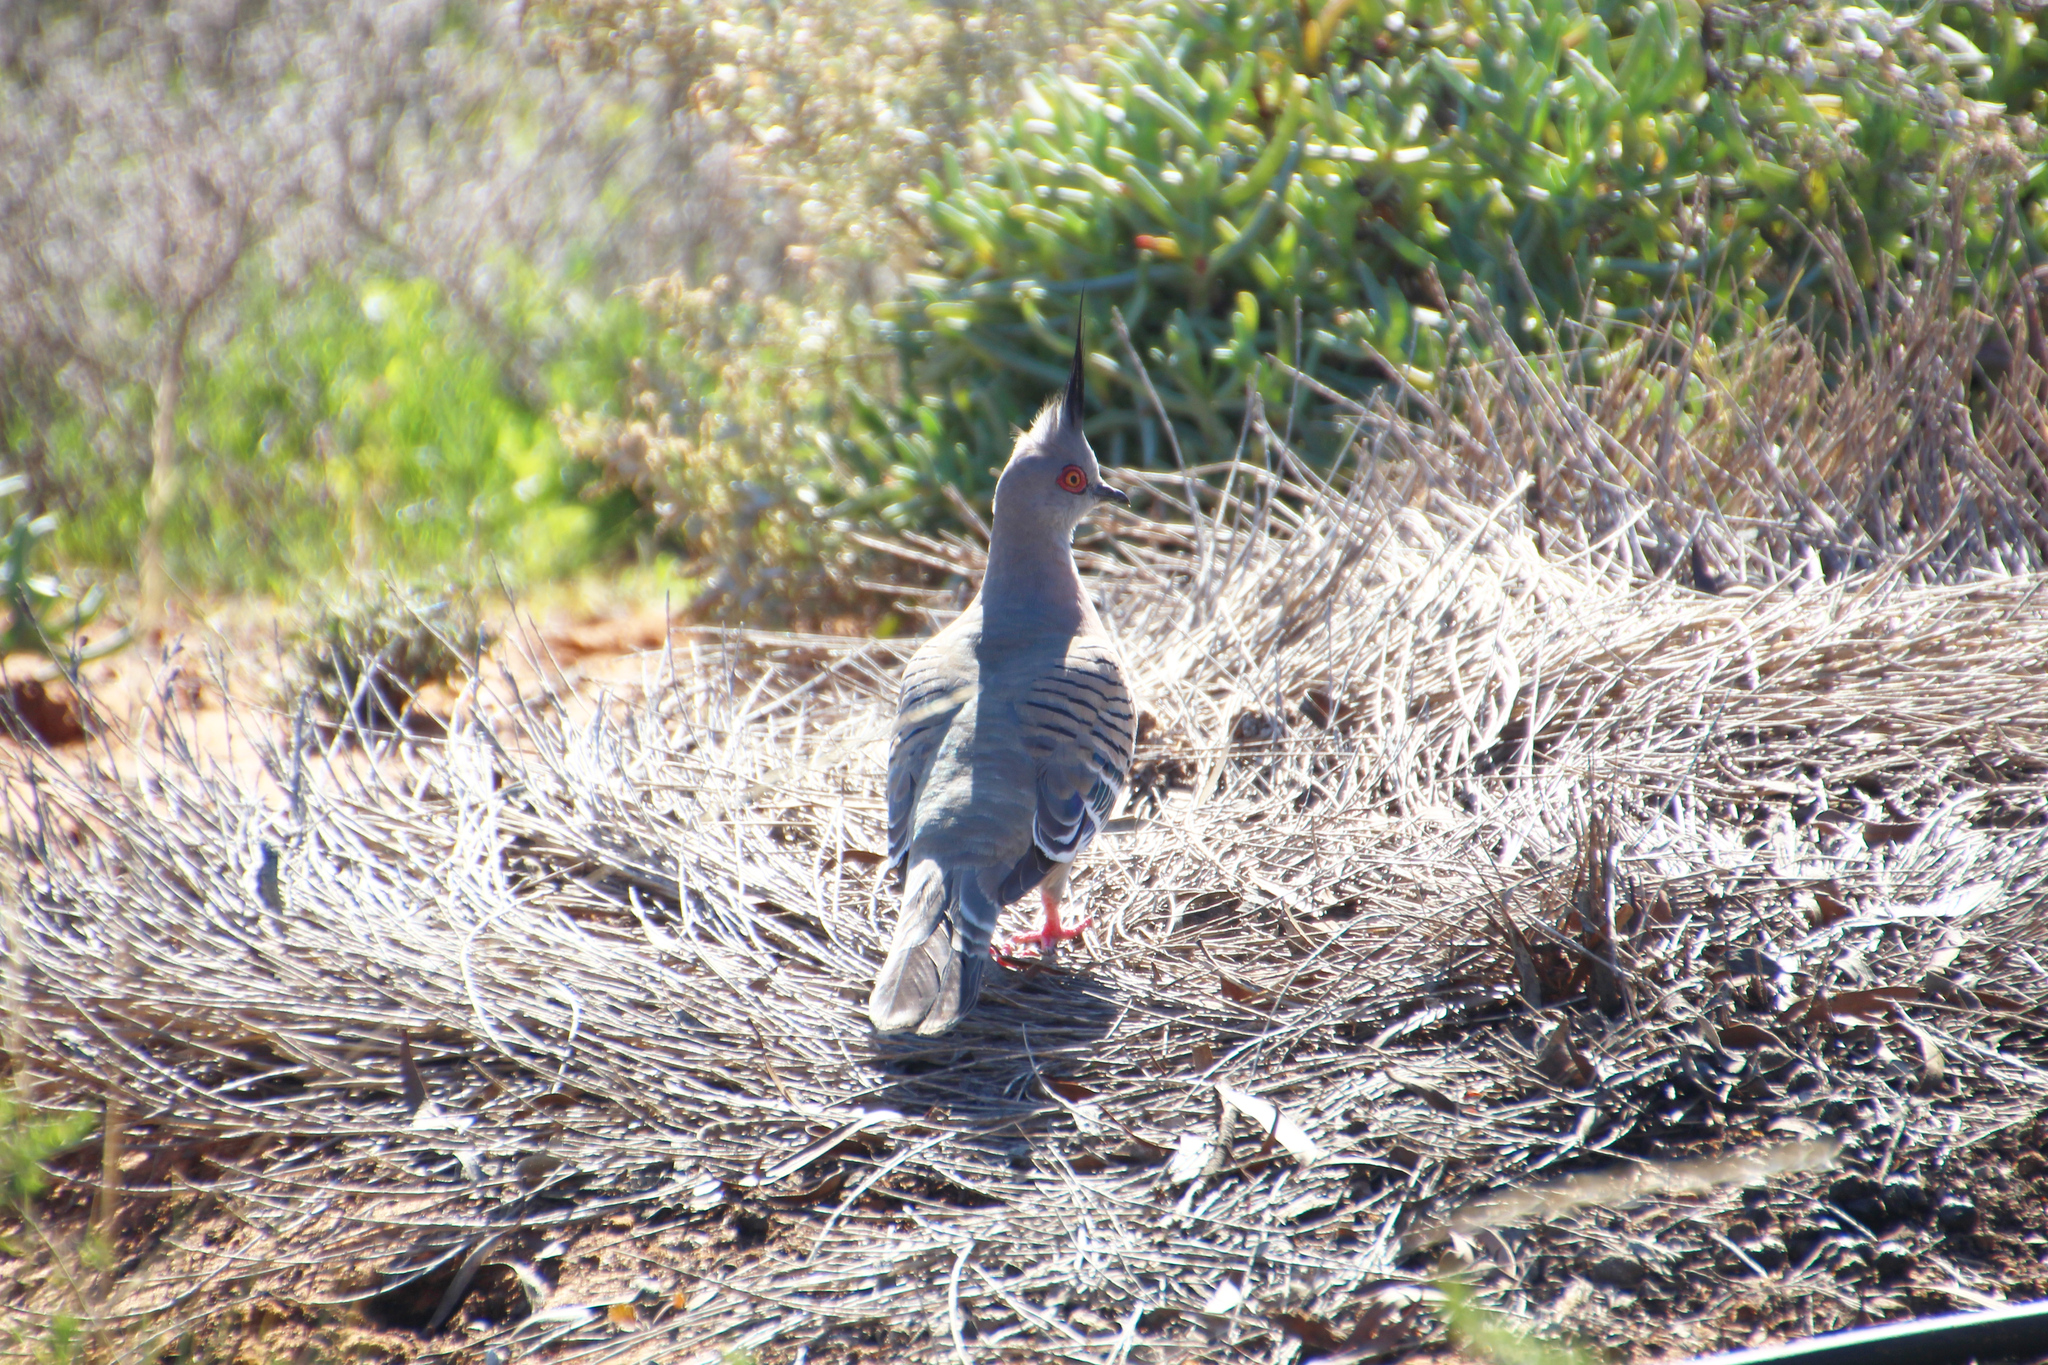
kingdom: Animalia
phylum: Chordata
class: Aves
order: Columbiformes
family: Columbidae
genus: Ocyphaps
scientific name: Ocyphaps lophotes
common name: Crested pigeon
